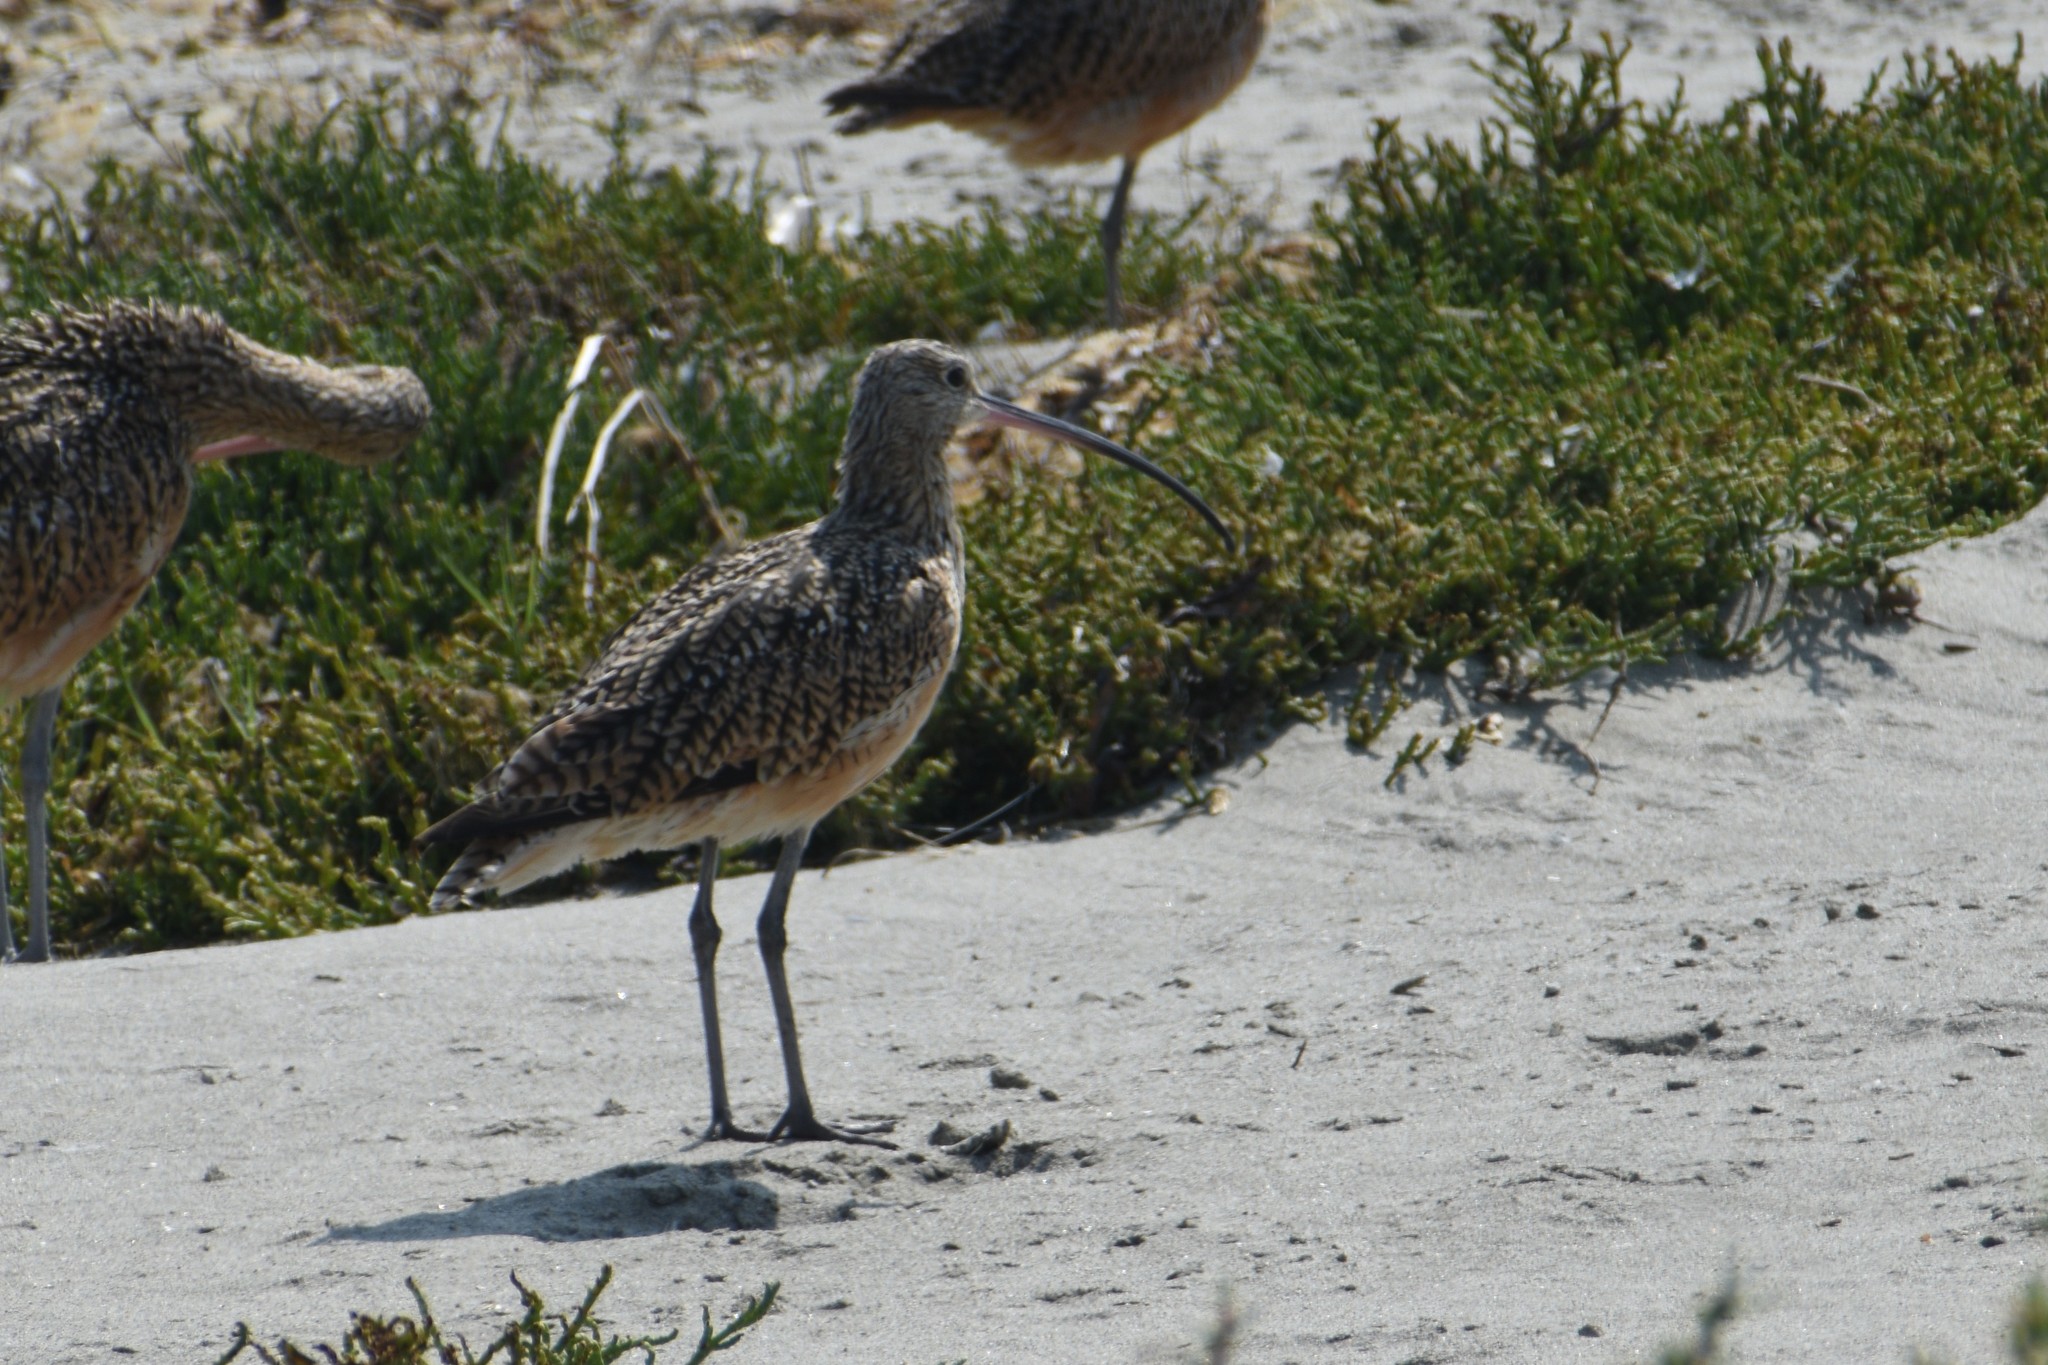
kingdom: Animalia
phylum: Chordata
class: Aves
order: Charadriiformes
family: Scolopacidae
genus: Numenius
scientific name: Numenius americanus
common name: Long-billed curlew
